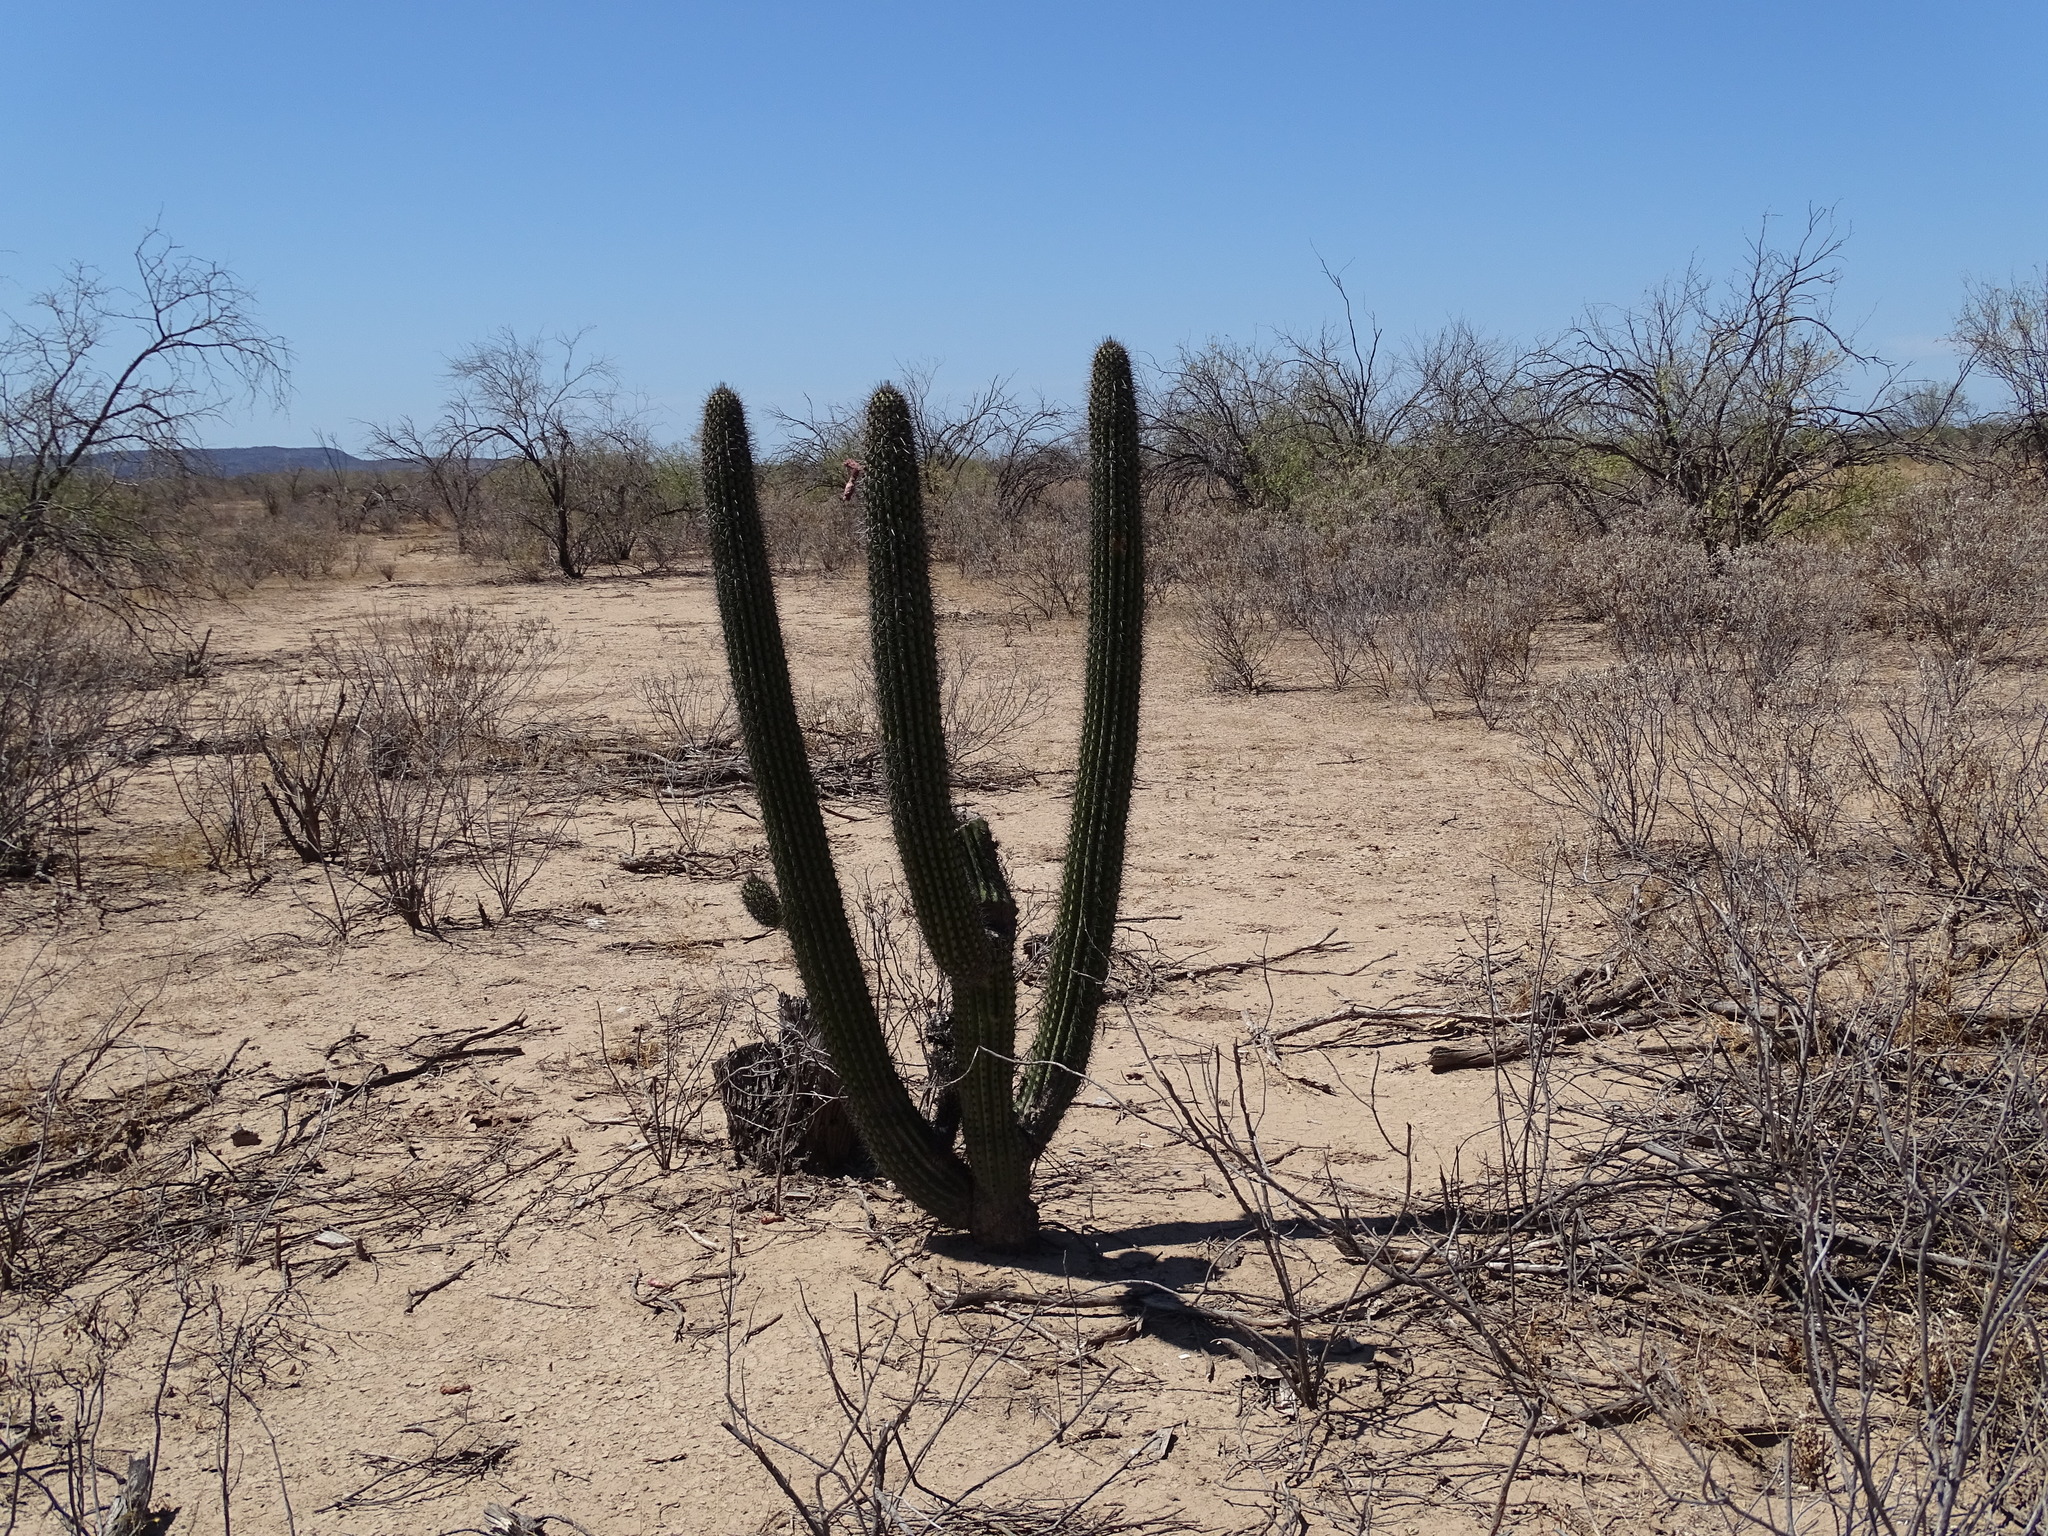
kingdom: Plantae
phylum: Tracheophyta
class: Magnoliopsida
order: Caryophyllales
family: Cactaceae
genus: Stenocereus
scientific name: Stenocereus thurberi
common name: Organ pipe cactus
